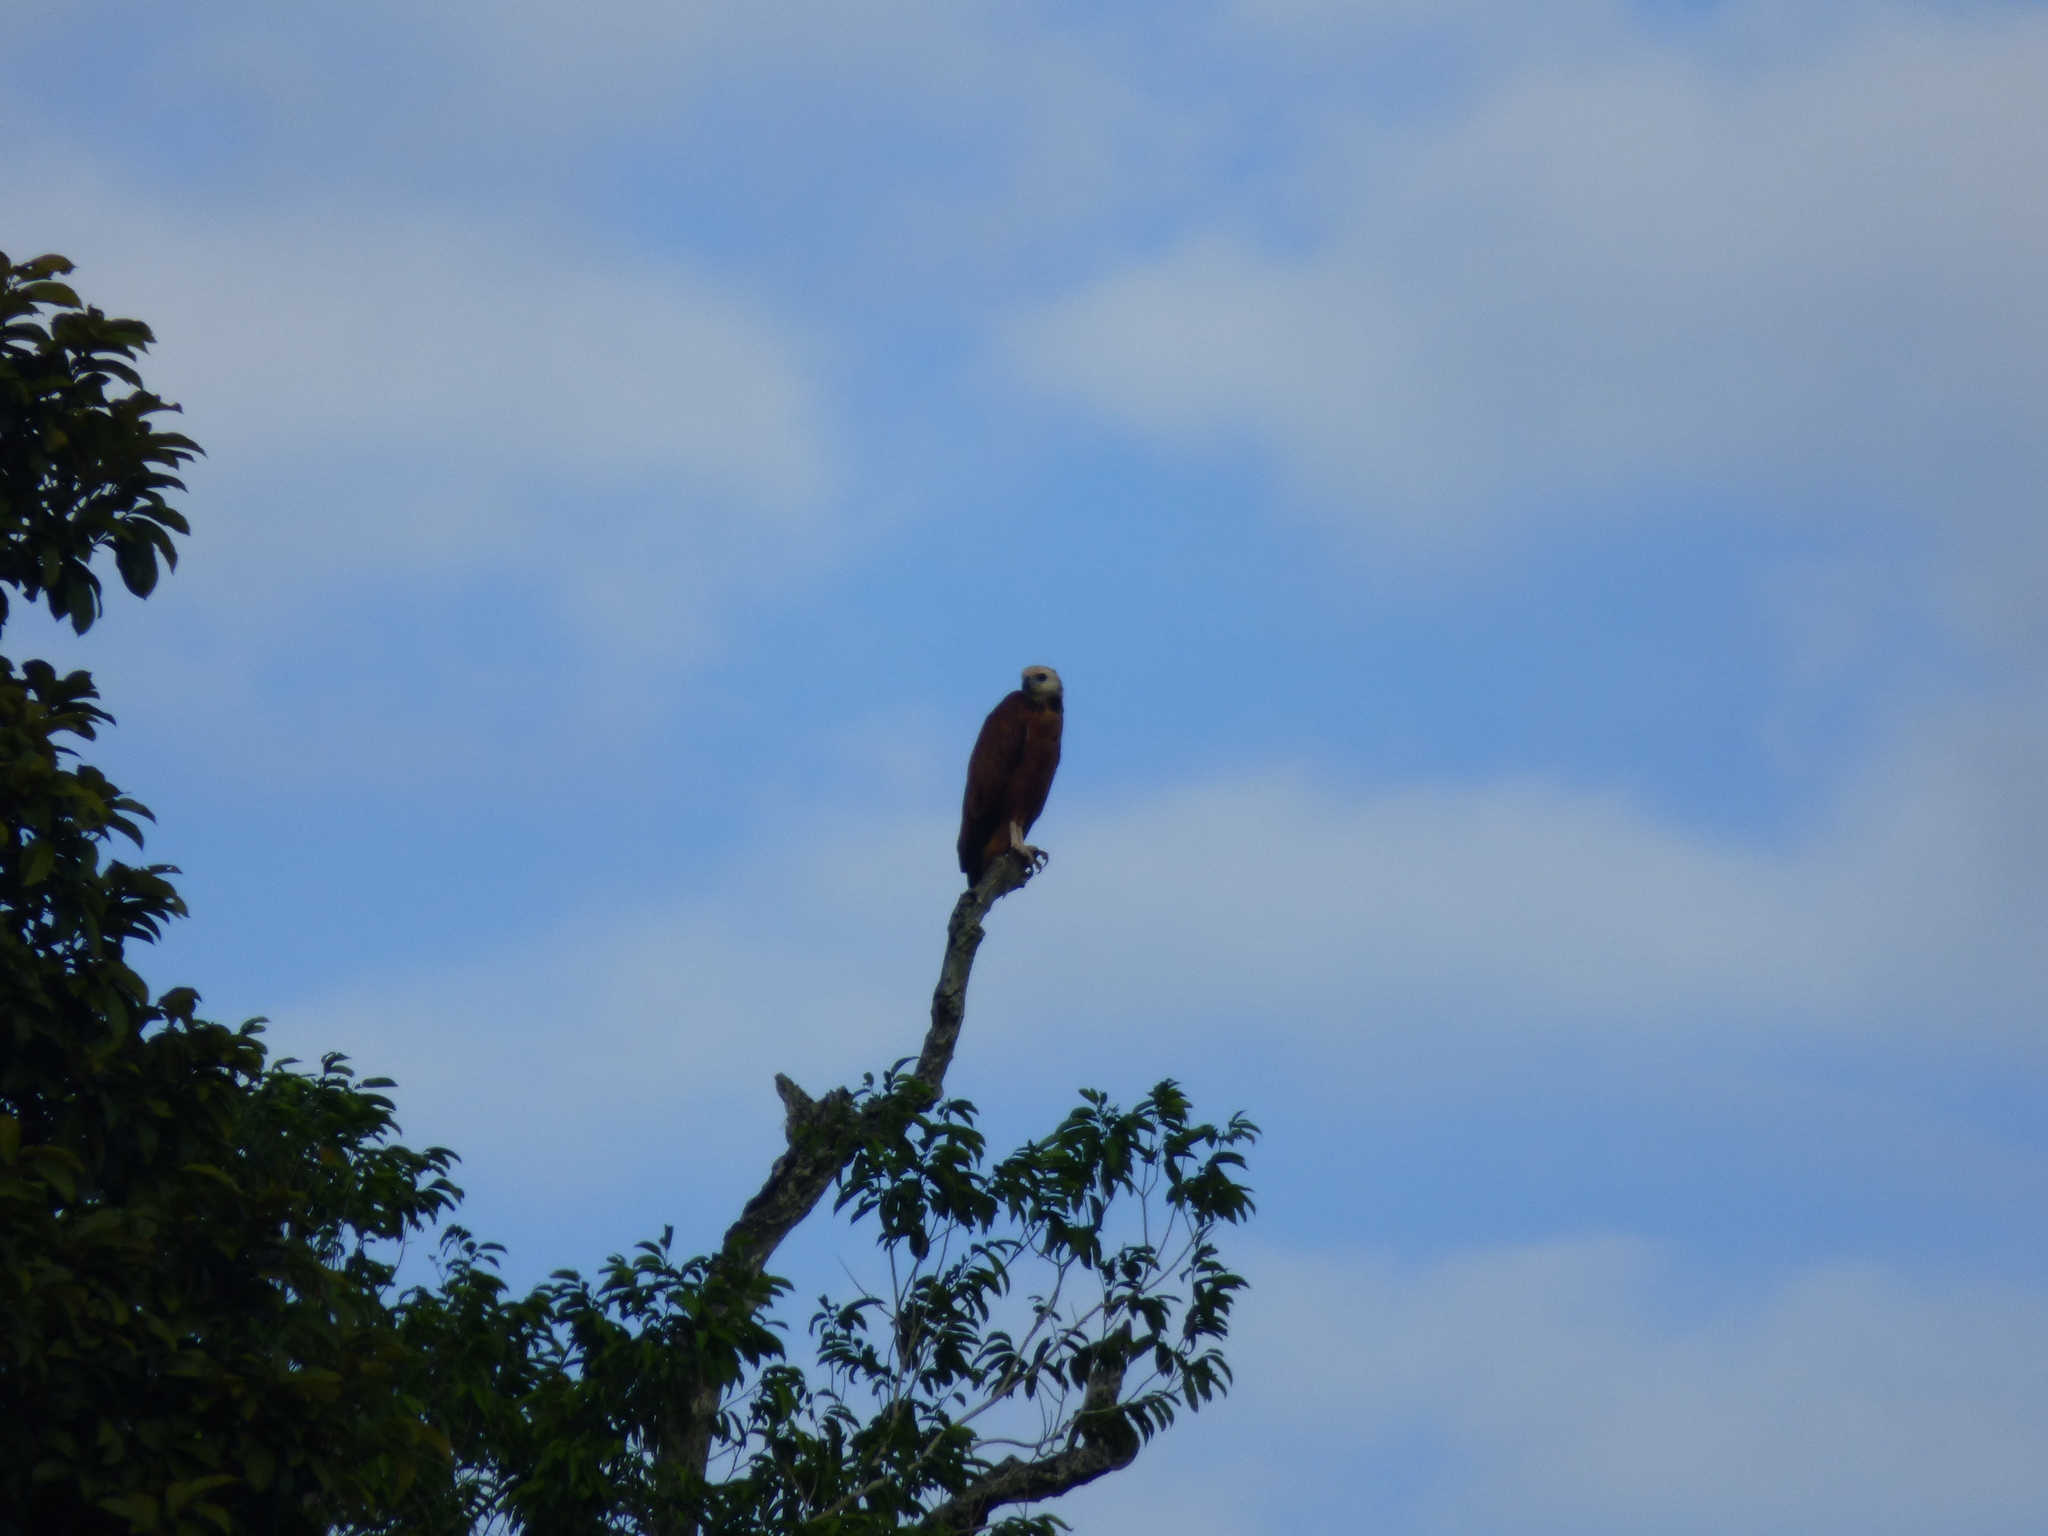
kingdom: Animalia
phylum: Chordata
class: Aves
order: Accipitriformes
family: Accipitridae
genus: Busarellus
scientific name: Busarellus nigricollis
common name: Black-collared hawk
